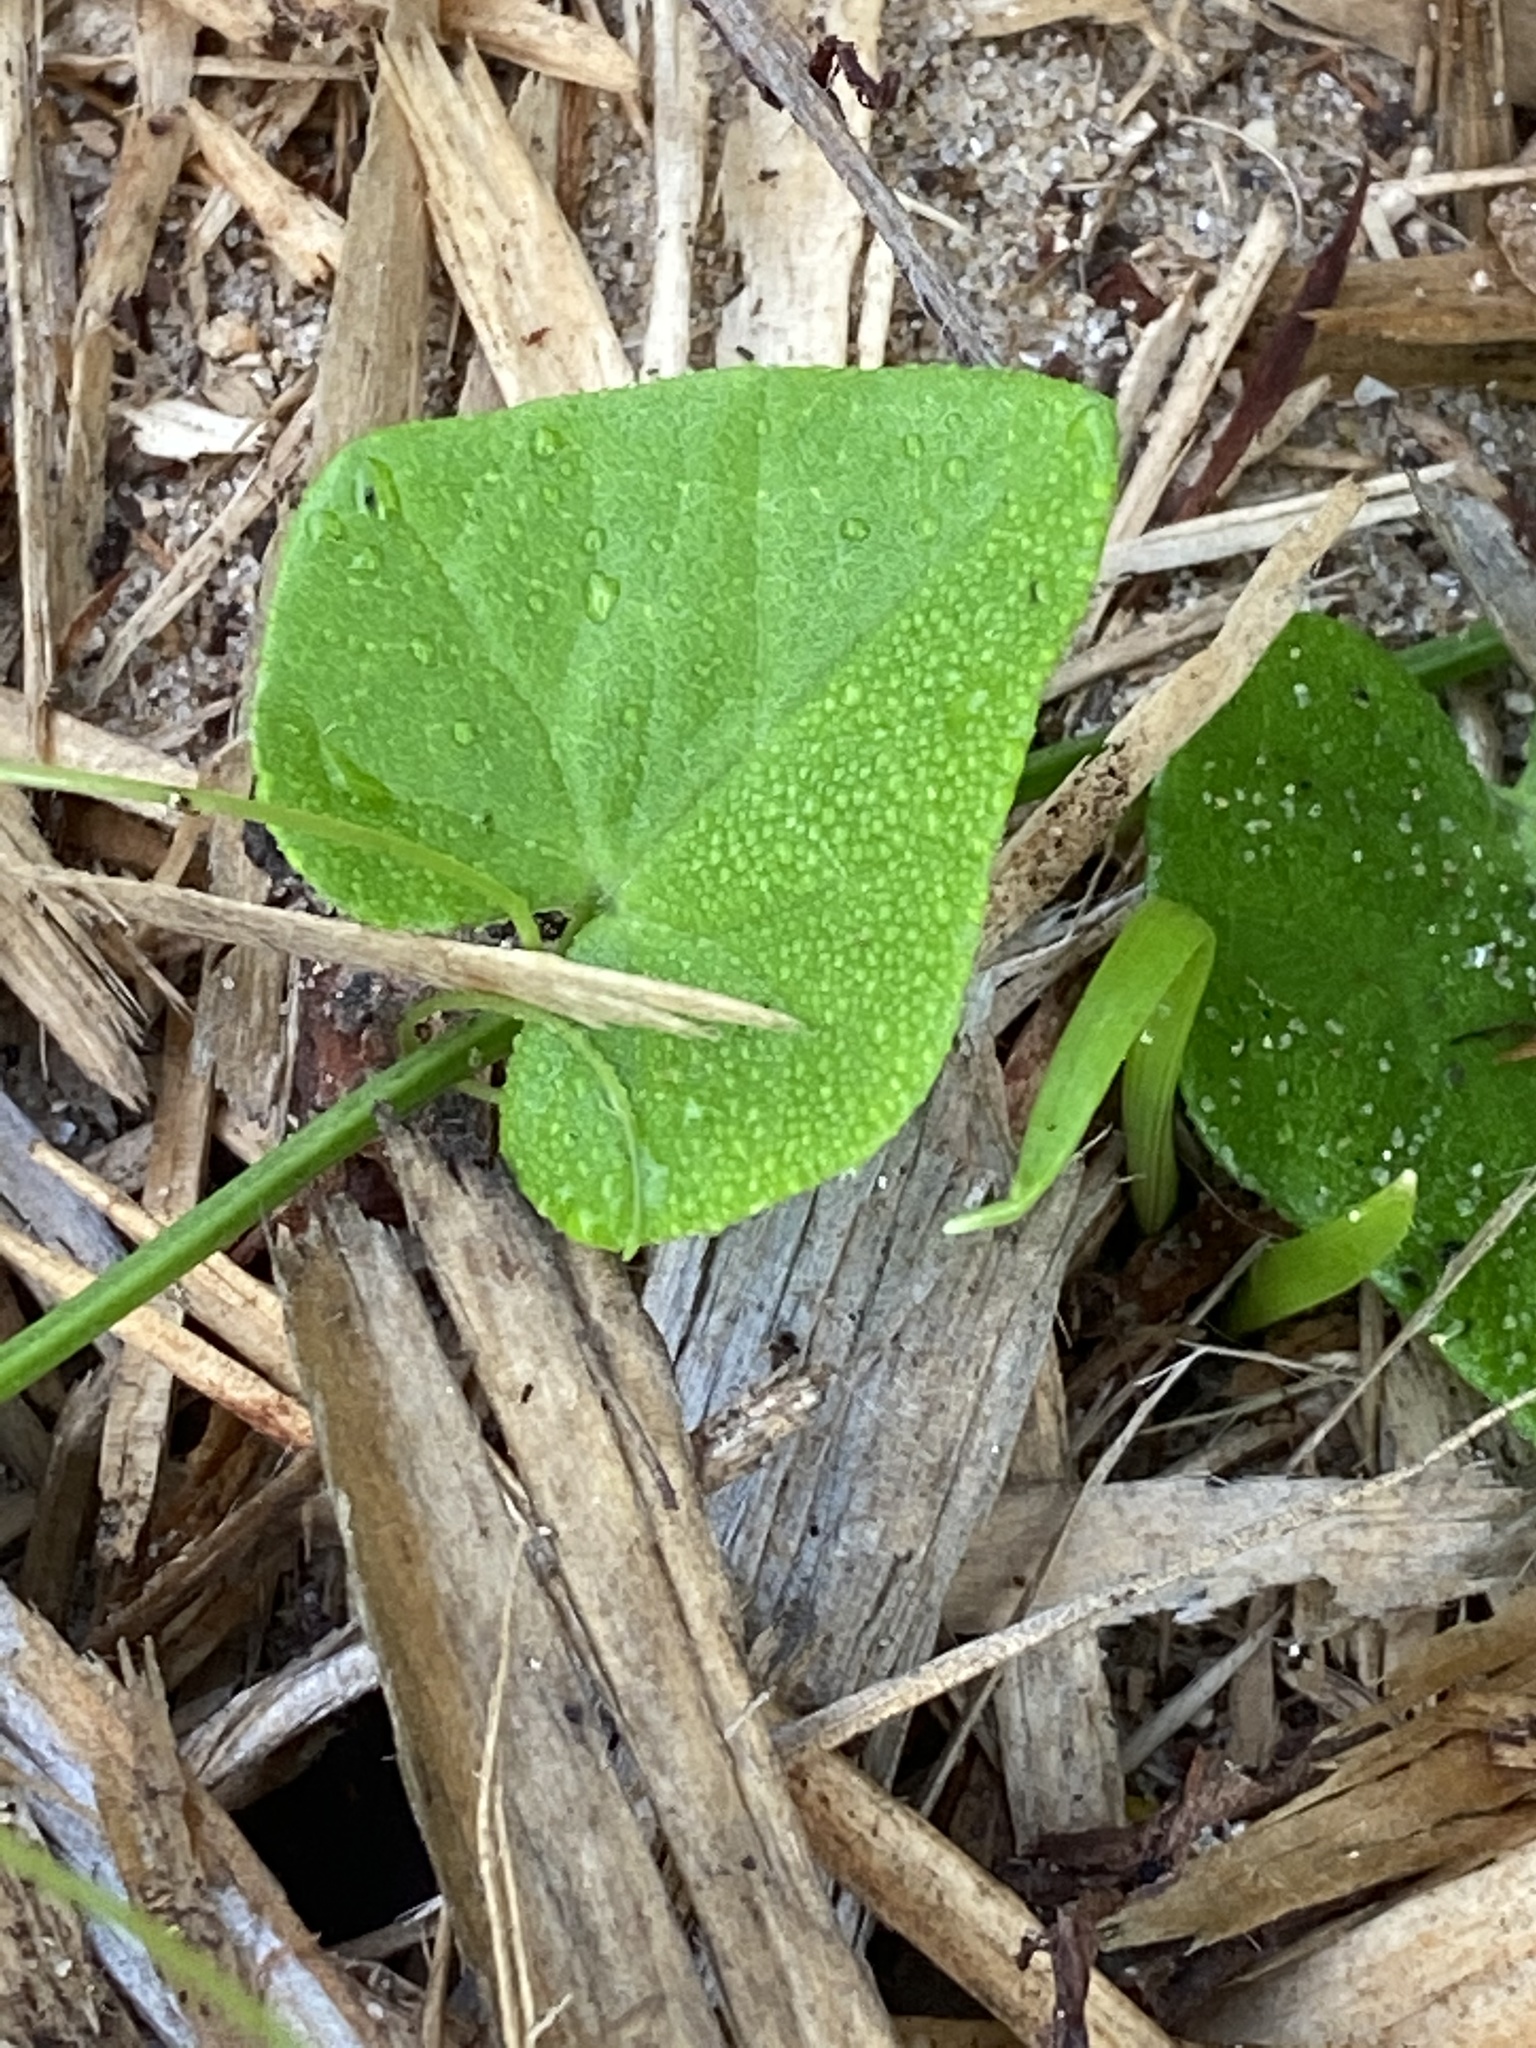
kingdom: Plantae
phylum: Tracheophyta
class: Magnoliopsida
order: Cucurbitales
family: Cucurbitaceae
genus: Kedrostis
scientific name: Kedrostis nana
